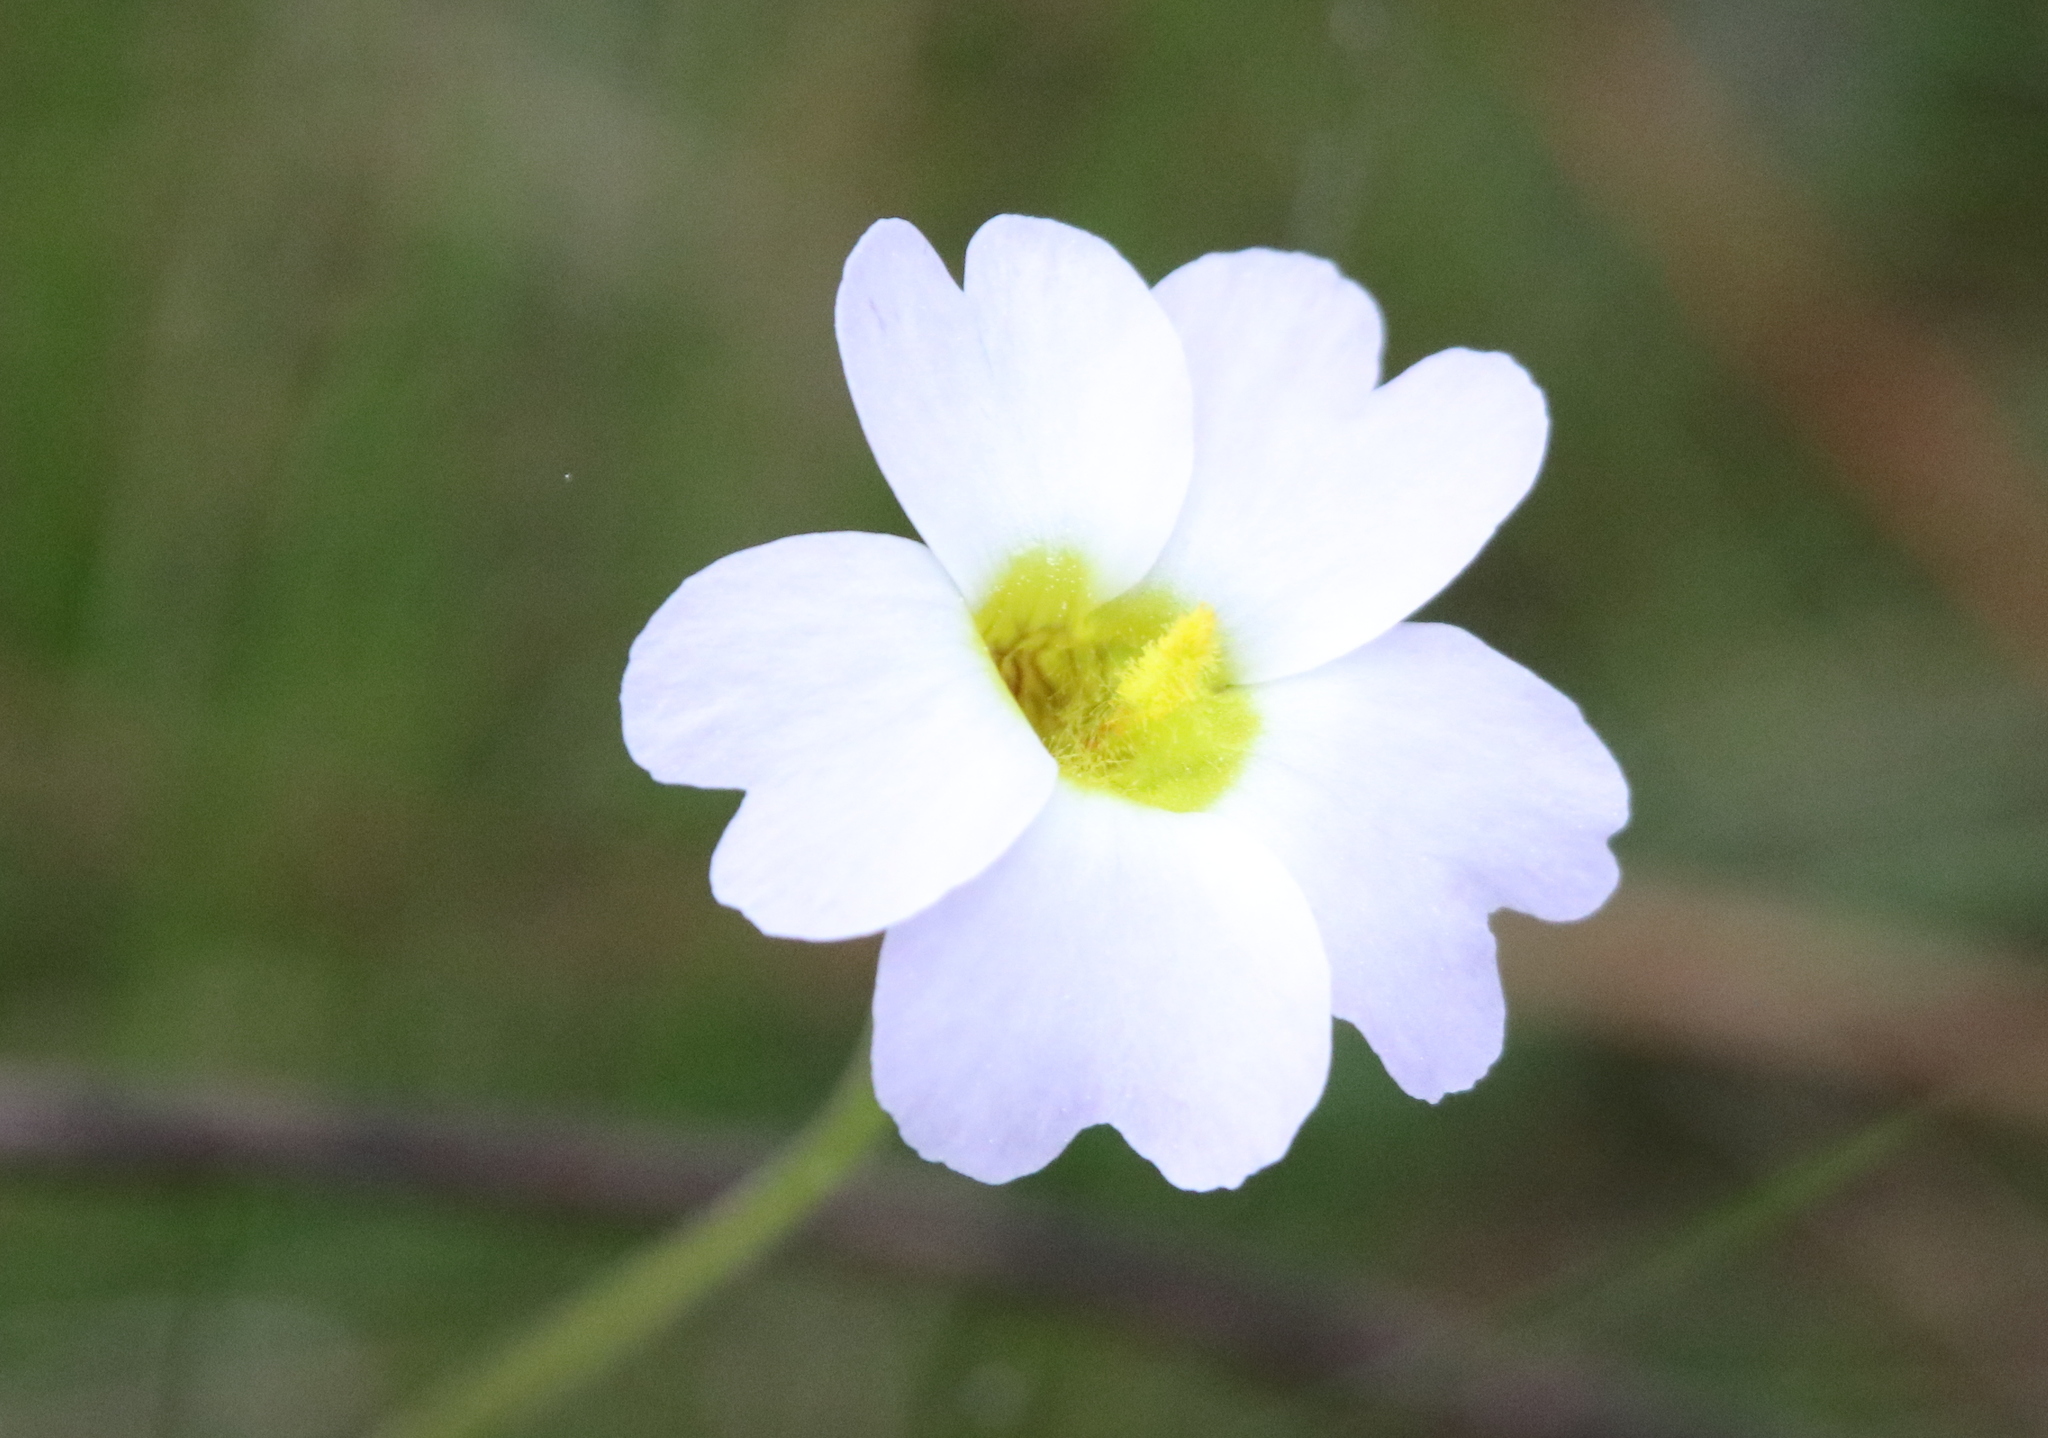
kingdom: Plantae
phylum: Tracheophyta
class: Magnoliopsida
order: Lamiales
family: Lentibulariaceae
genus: Pinguicula
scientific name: Pinguicula primuliflora
